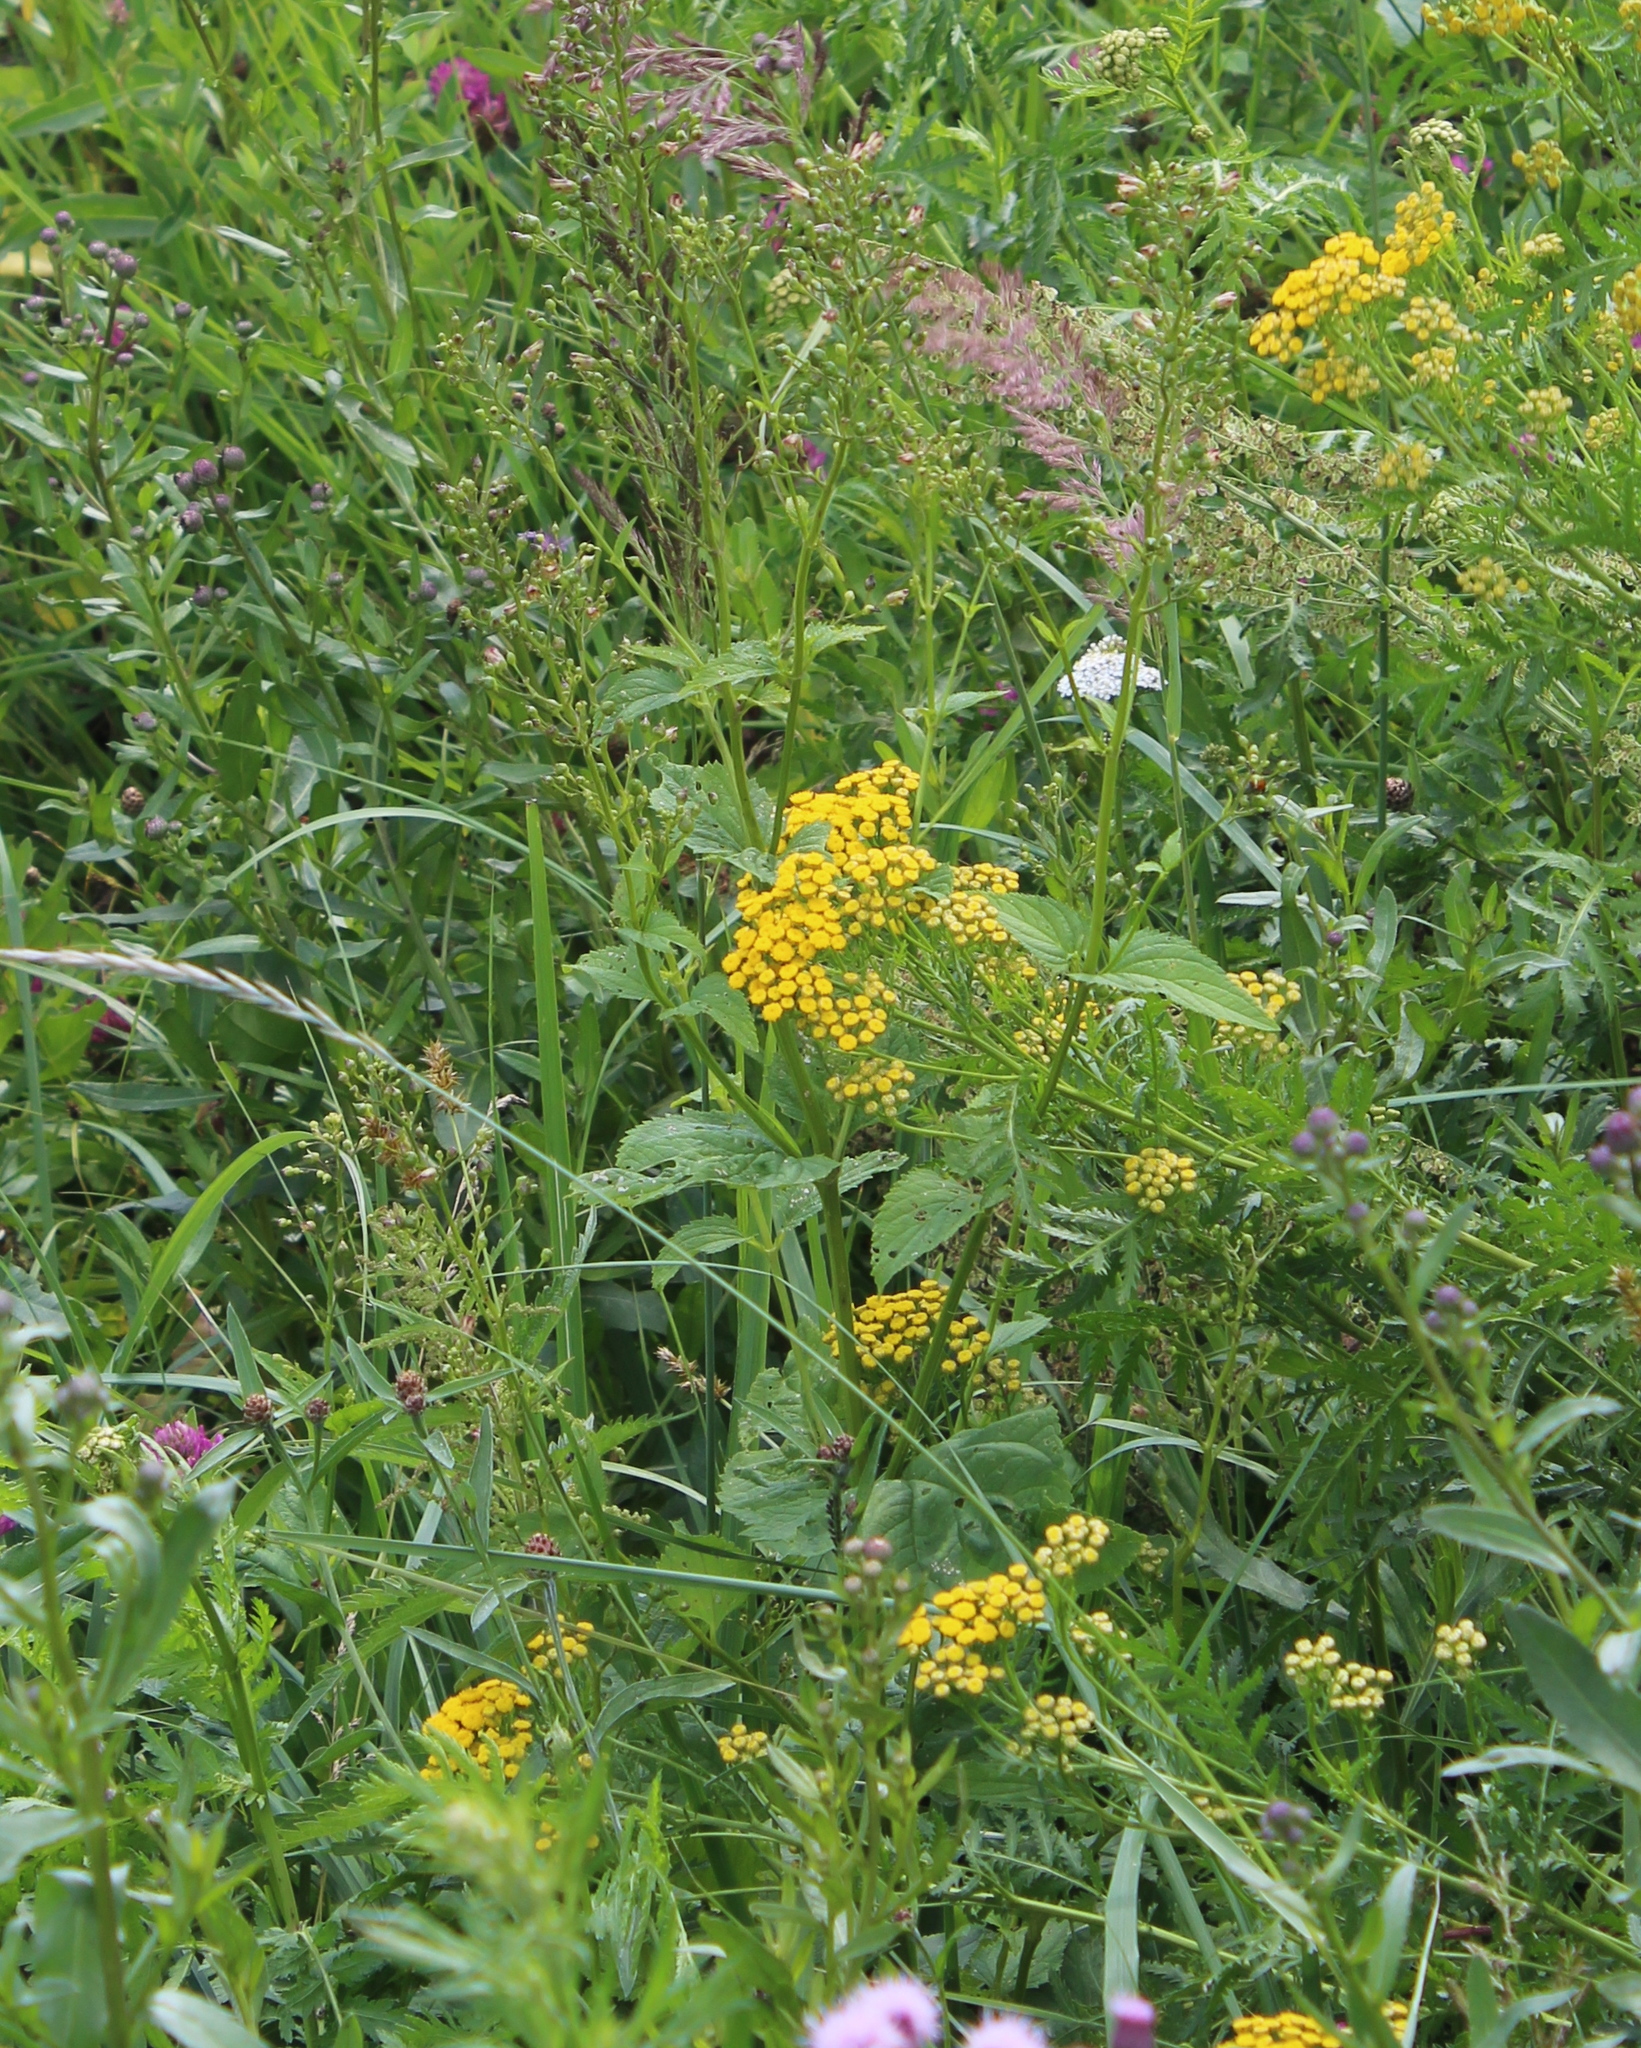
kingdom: Plantae
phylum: Tracheophyta
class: Magnoliopsida
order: Lamiales
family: Scrophulariaceae
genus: Scrophularia
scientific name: Scrophularia nodosa
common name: Common figwort
